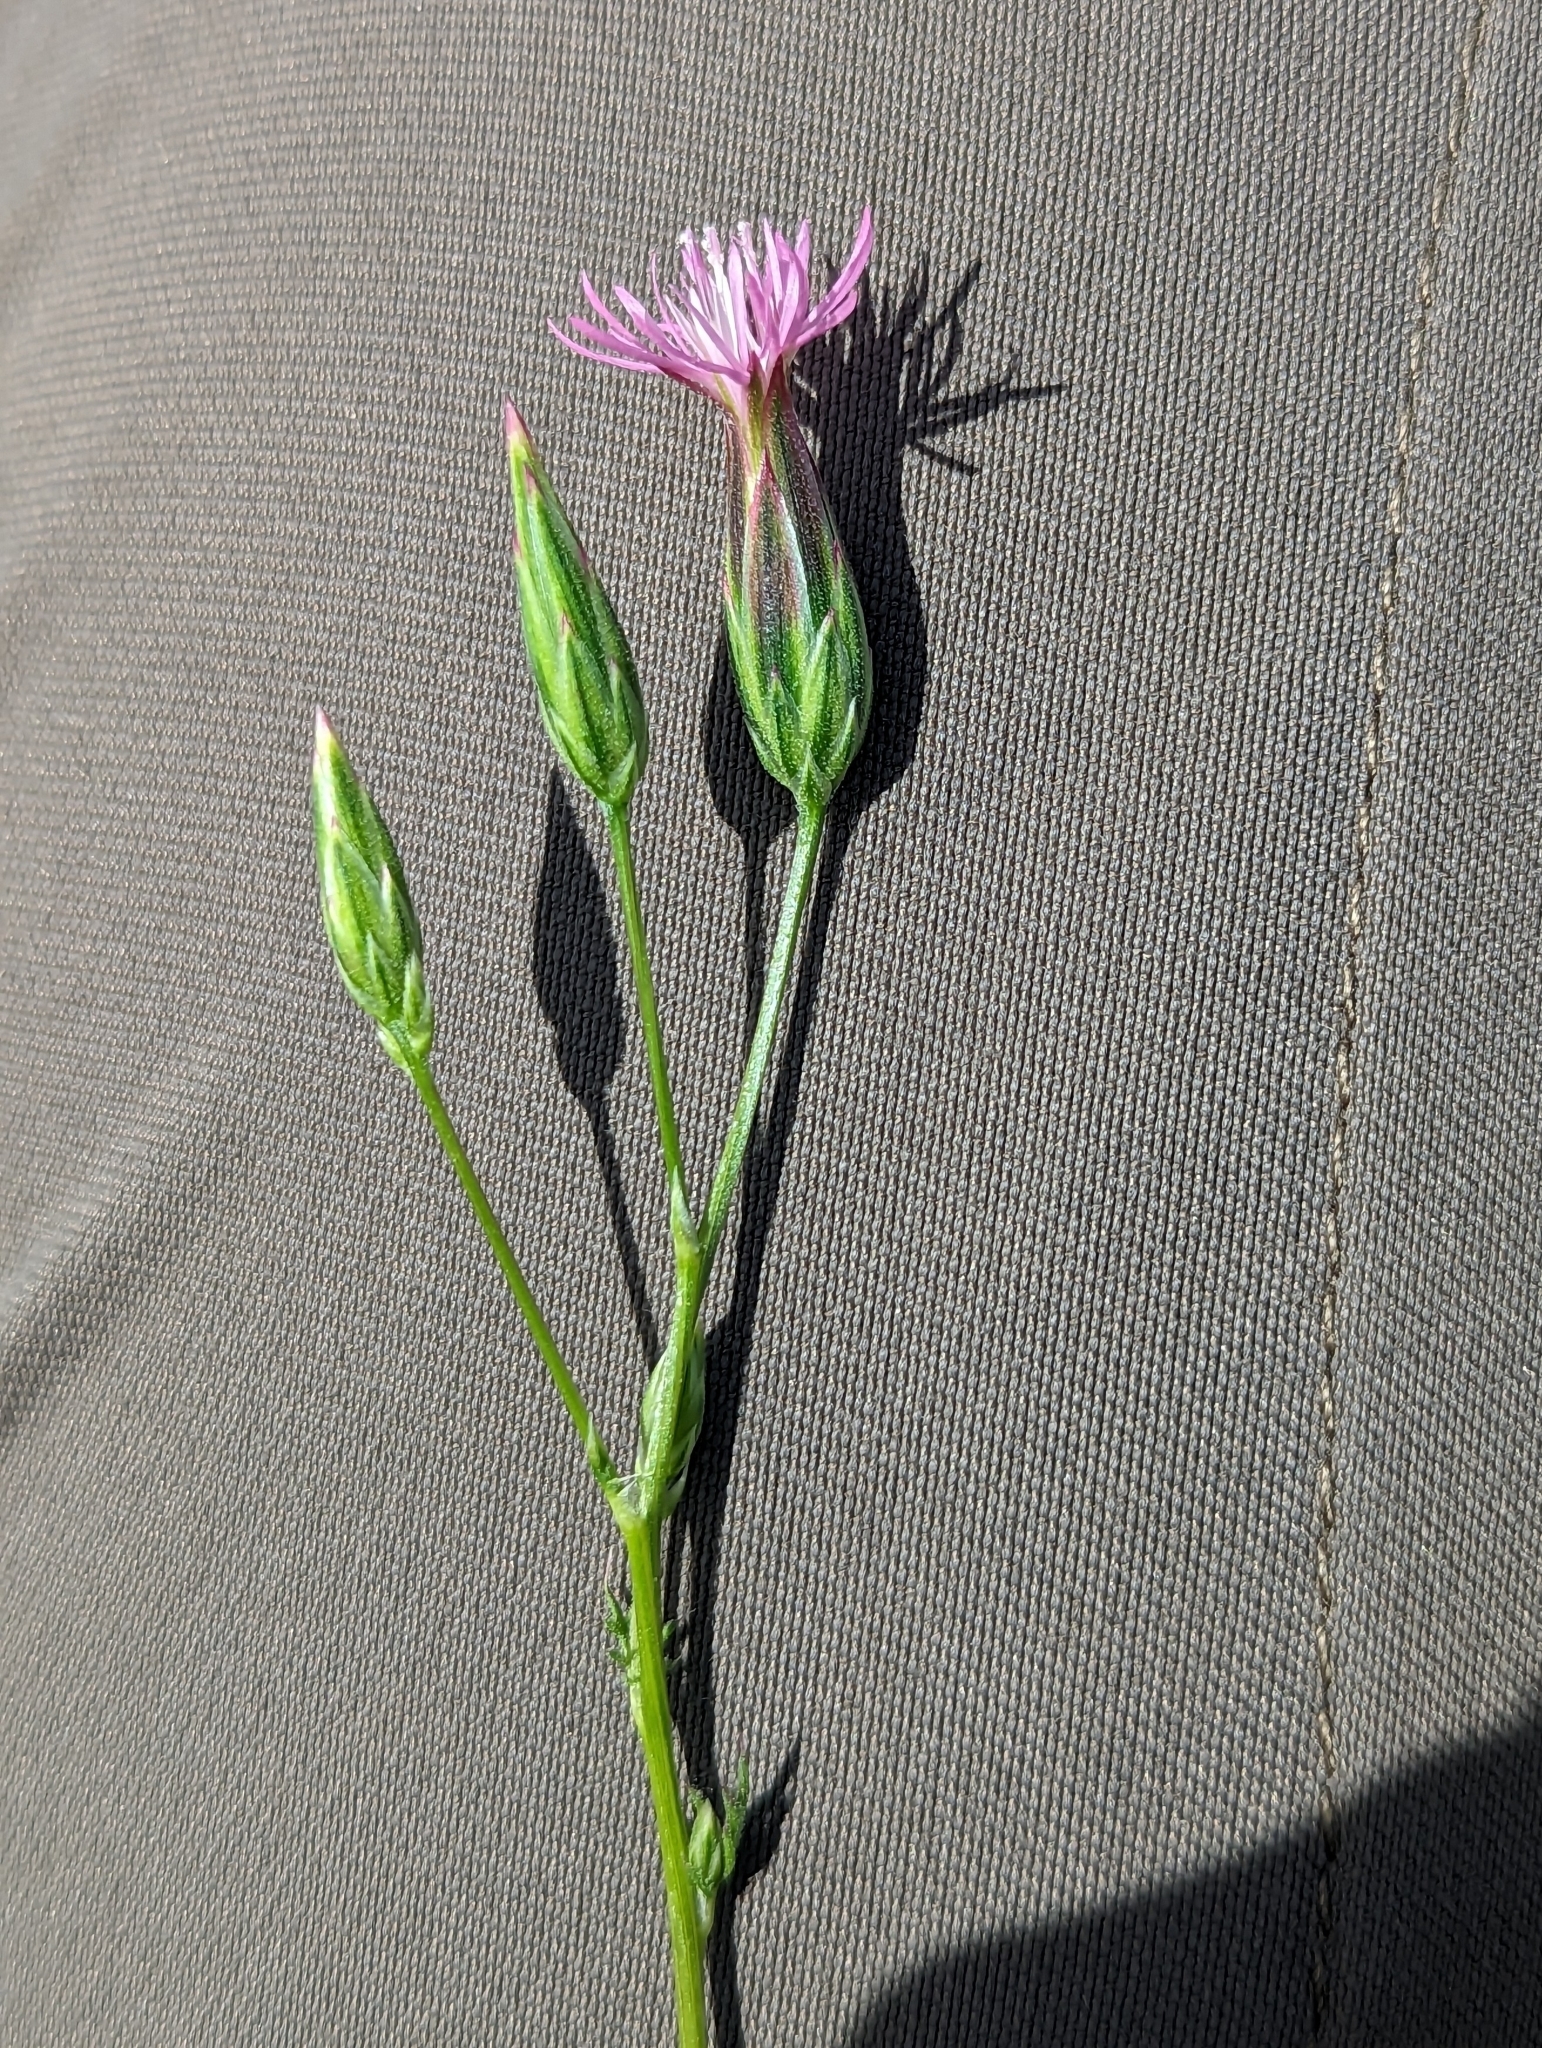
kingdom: Plantae
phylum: Tracheophyta
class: Magnoliopsida
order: Asterales
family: Asteraceae
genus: Crupina
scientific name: Crupina vulgaris
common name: Common crupina
